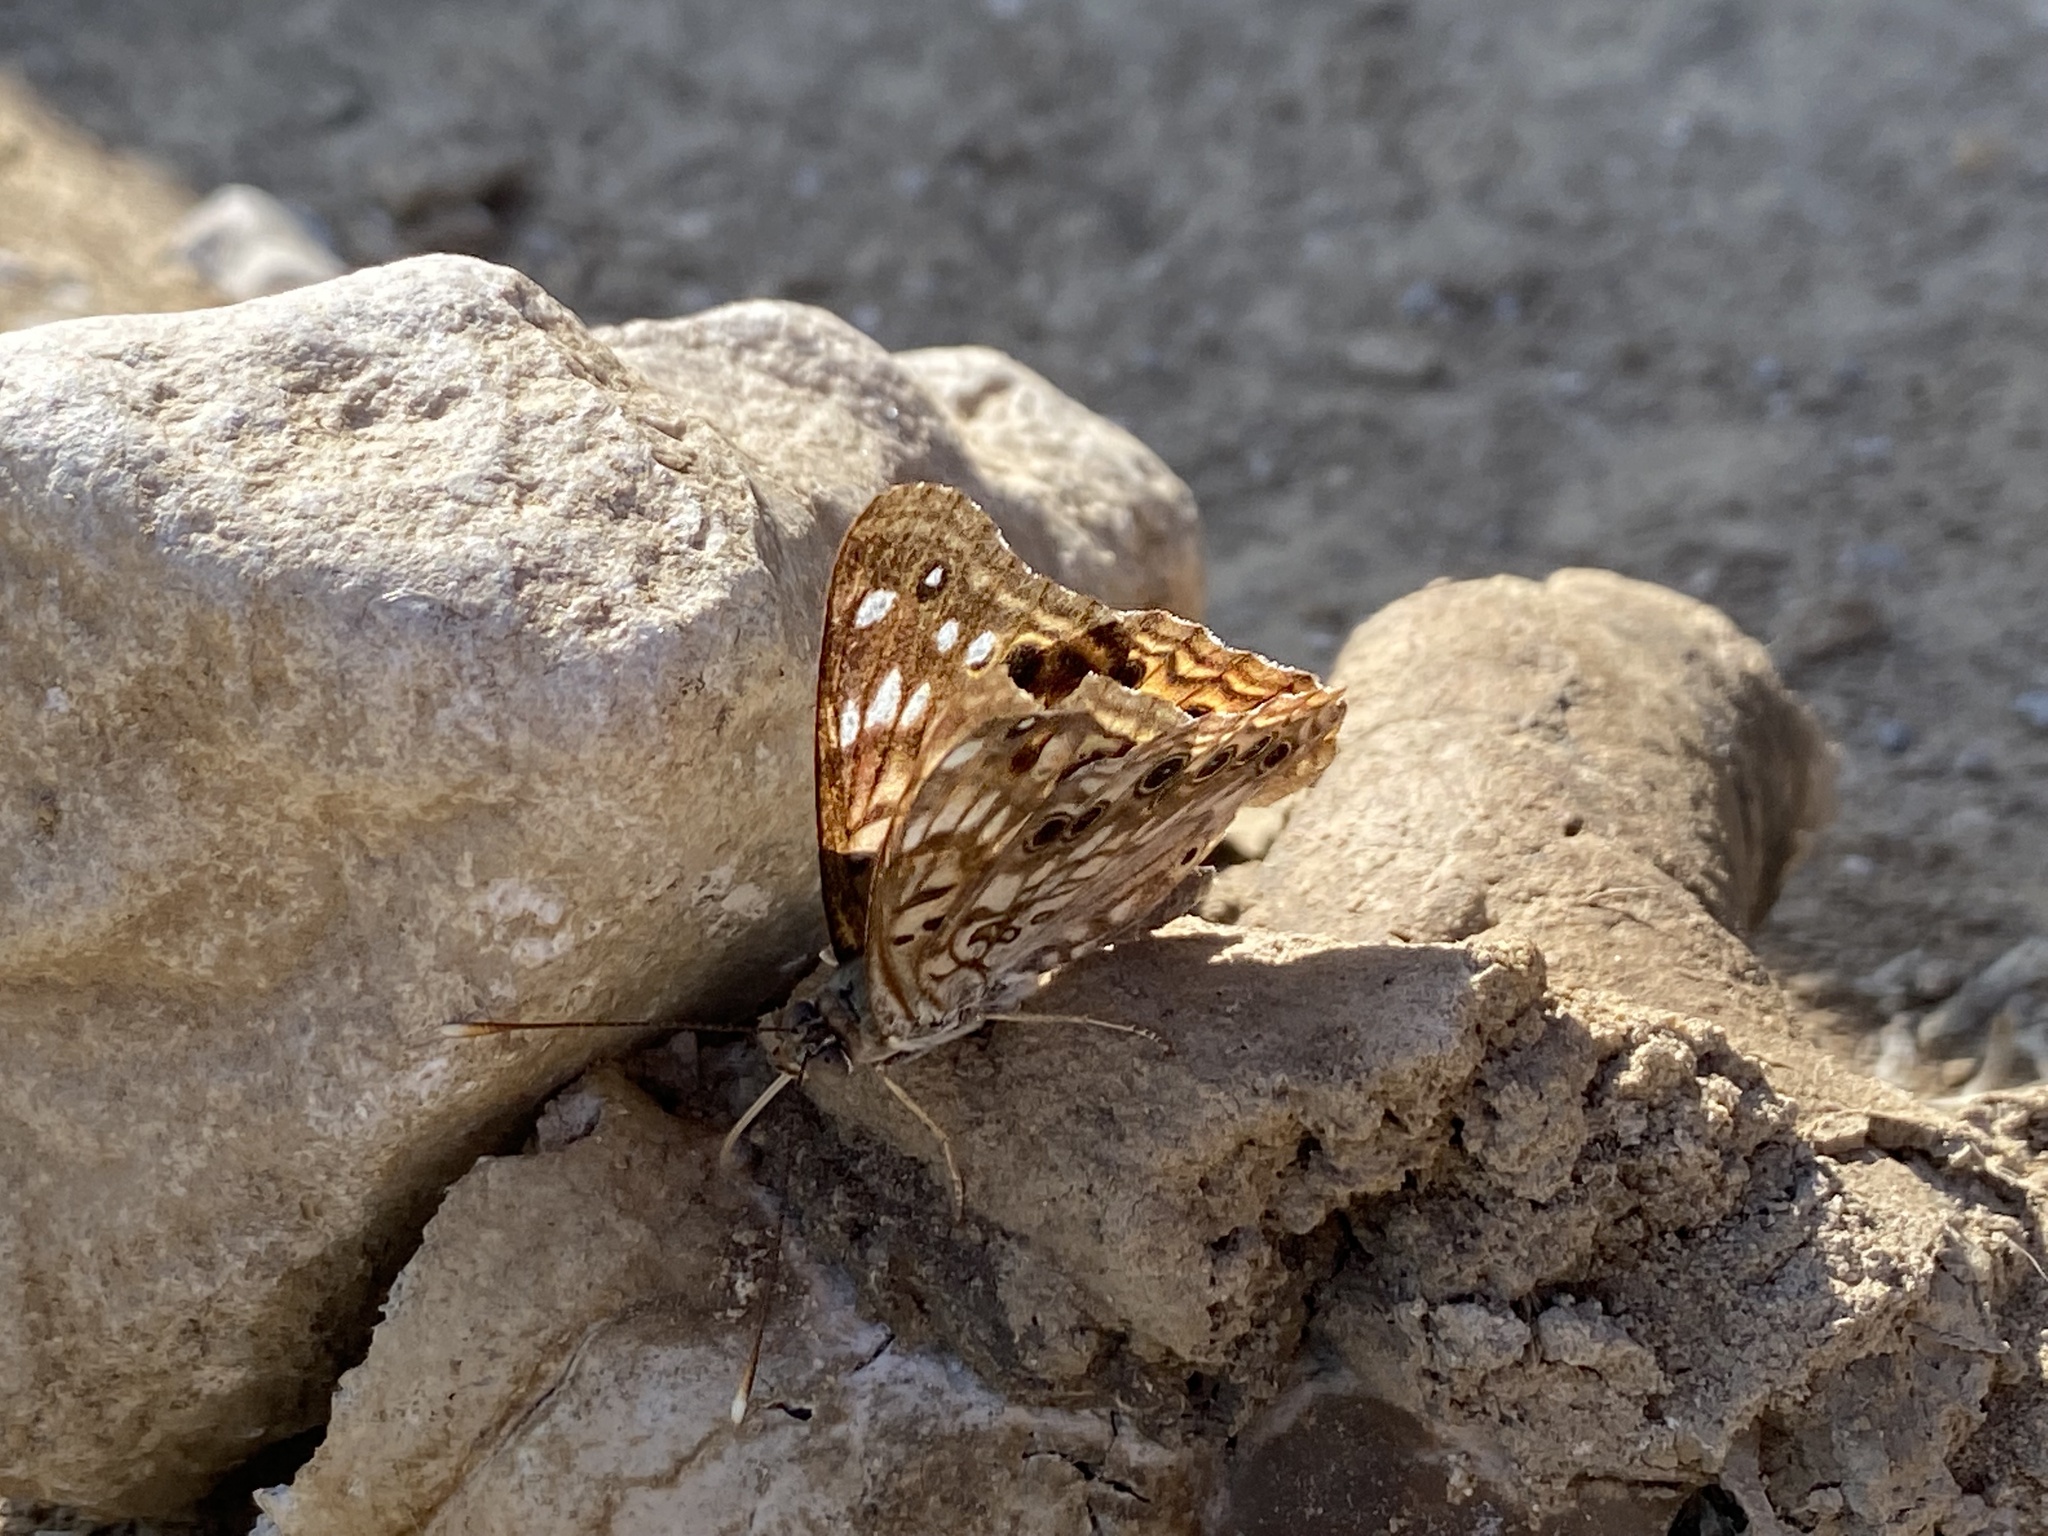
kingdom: Animalia
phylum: Arthropoda
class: Insecta
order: Lepidoptera
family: Nymphalidae
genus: Asterocampa
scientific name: Asterocampa celtis
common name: Hackberry emperor
